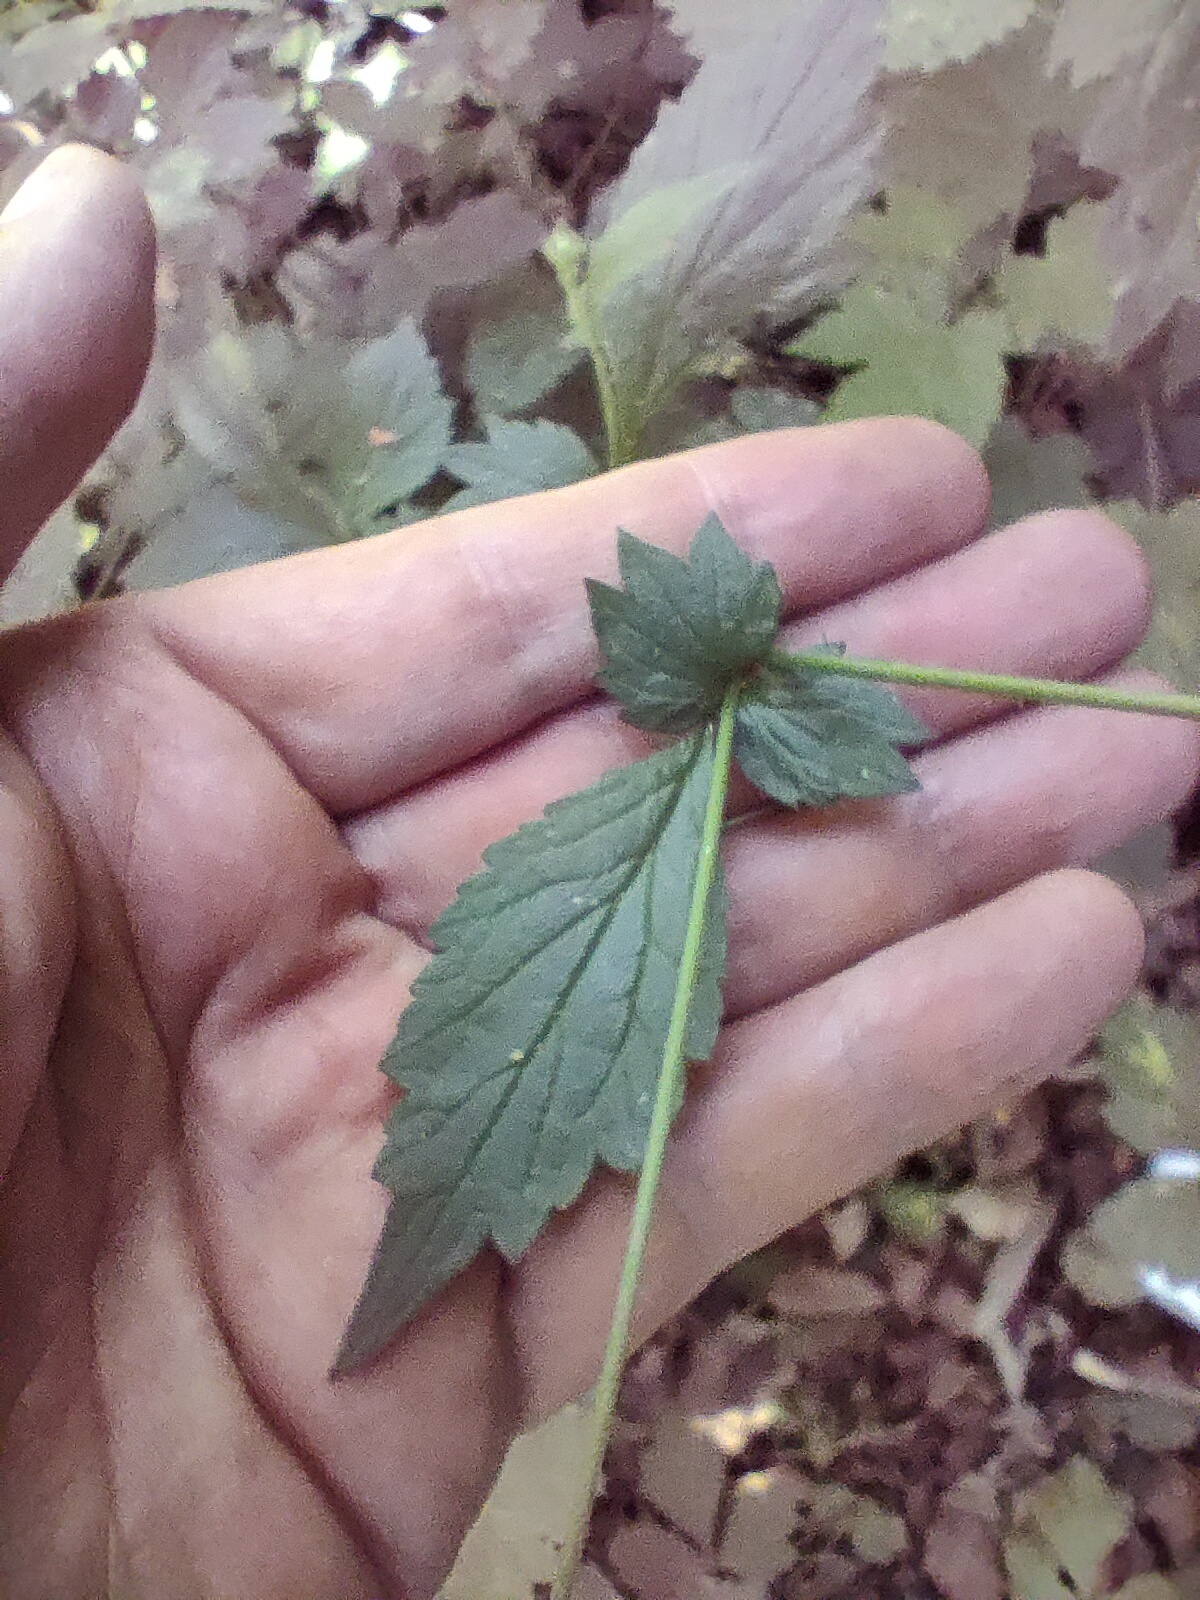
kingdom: Plantae
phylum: Tracheophyta
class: Magnoliopsida
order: Rosales
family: Rosaceae
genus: Geum
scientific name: Geum urbanum
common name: Wood avens
